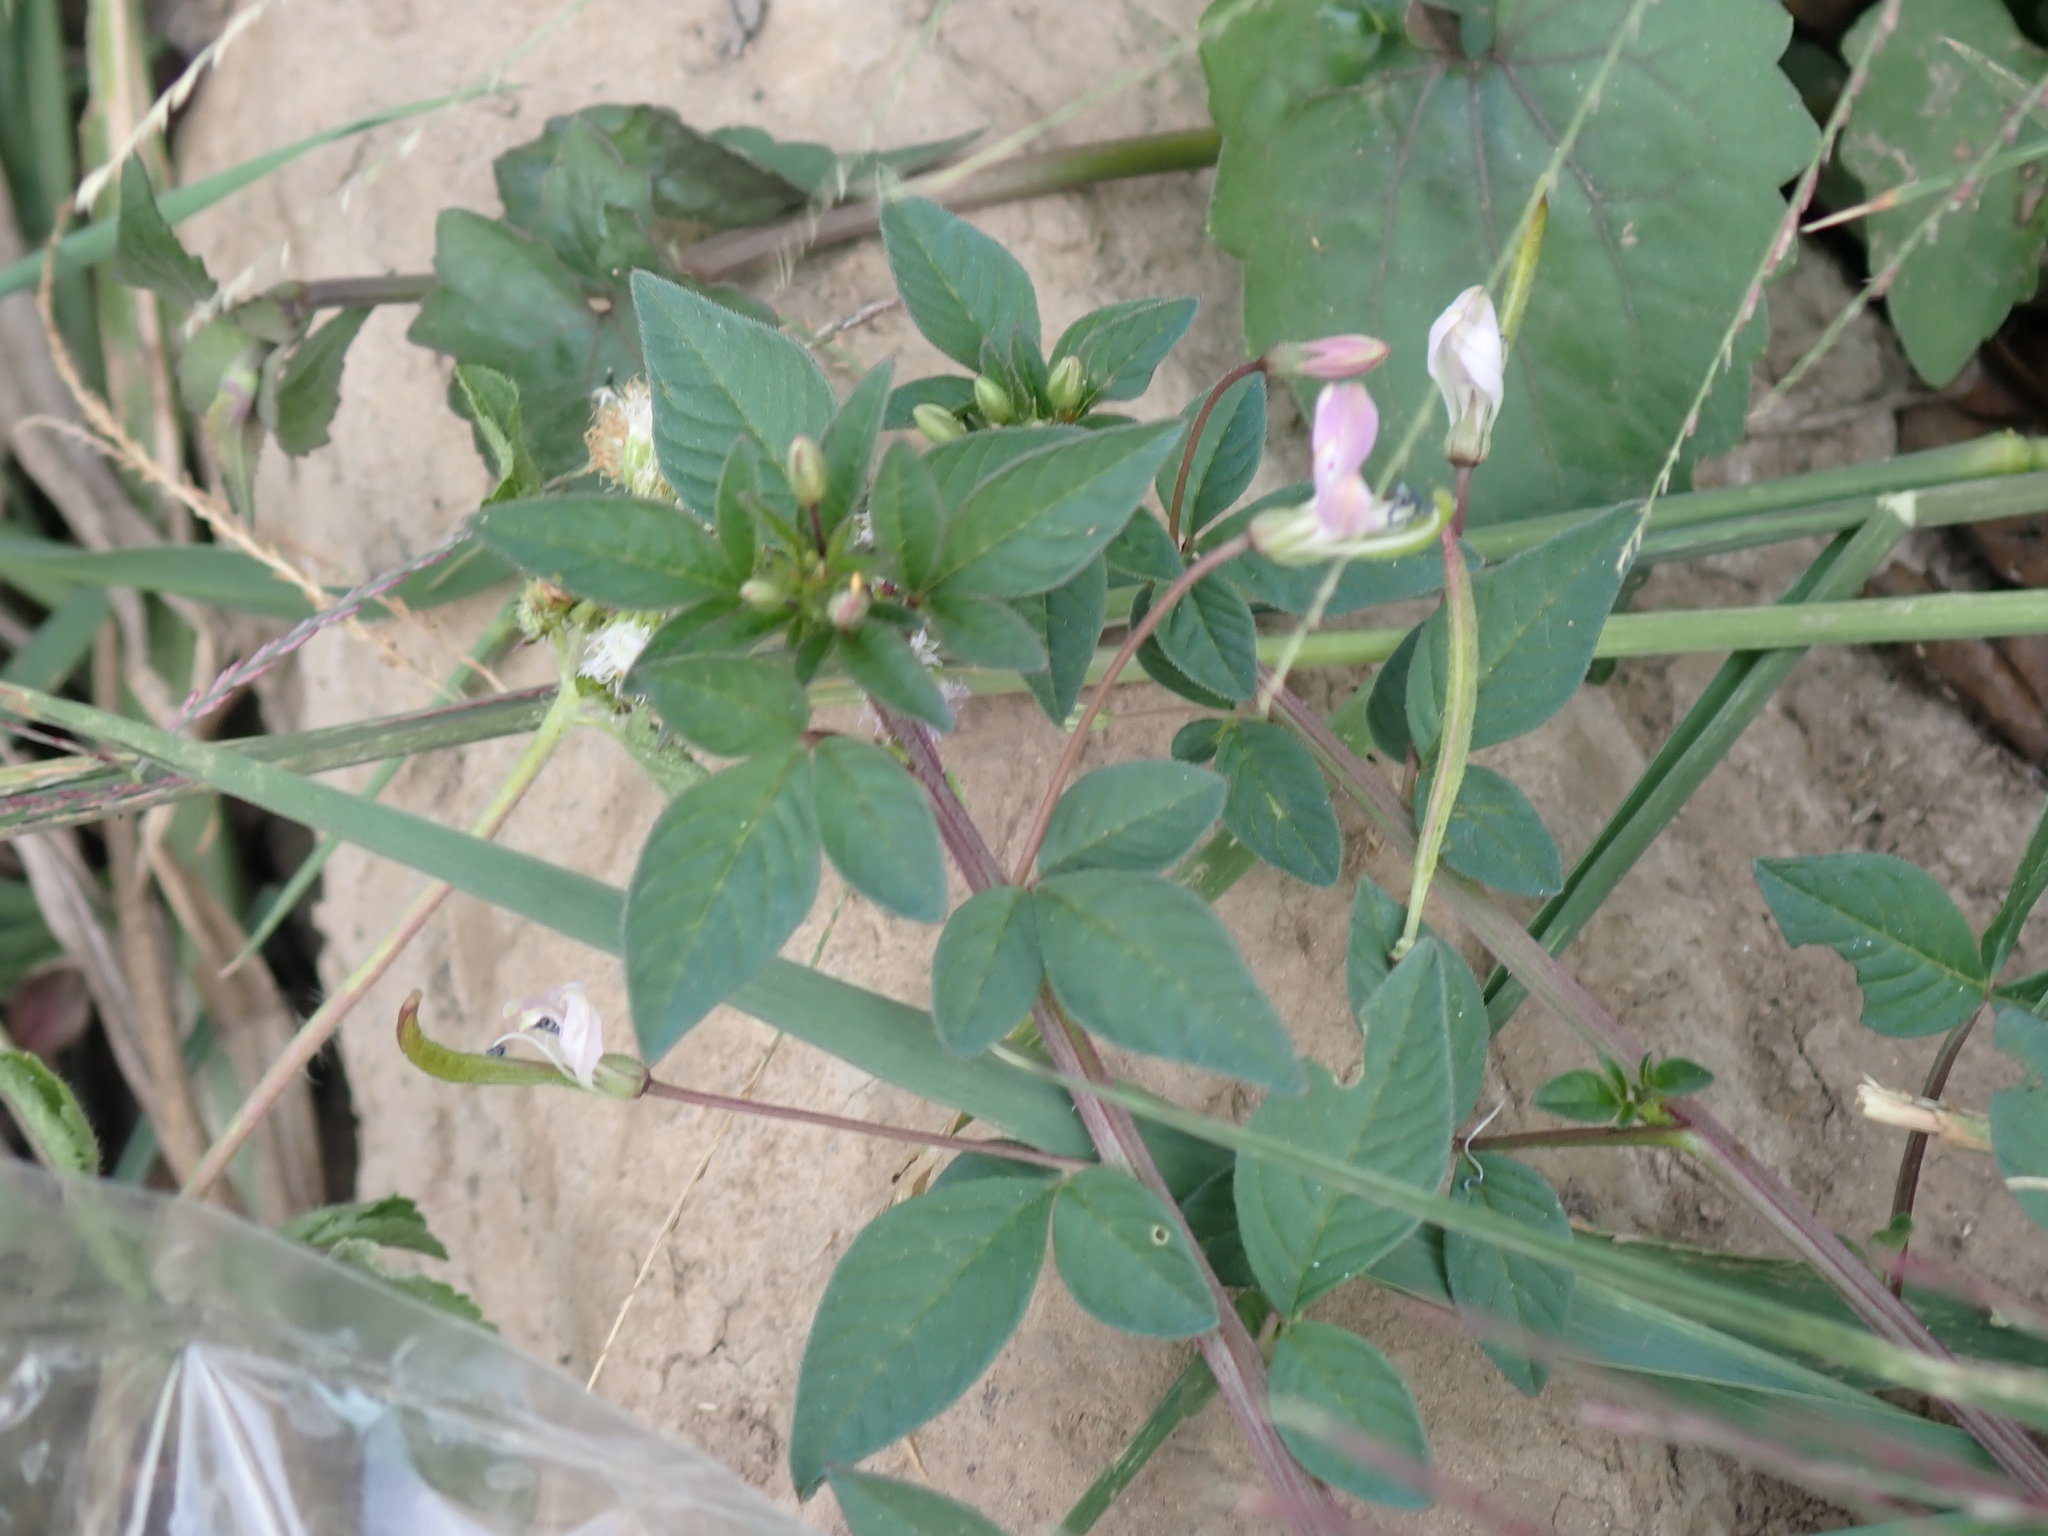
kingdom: Plantae
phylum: Tracheophyta
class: Magnoliopsida
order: Brassicales
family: Cleomaceae
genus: Sieruela
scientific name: Sieruela rutidosperma
